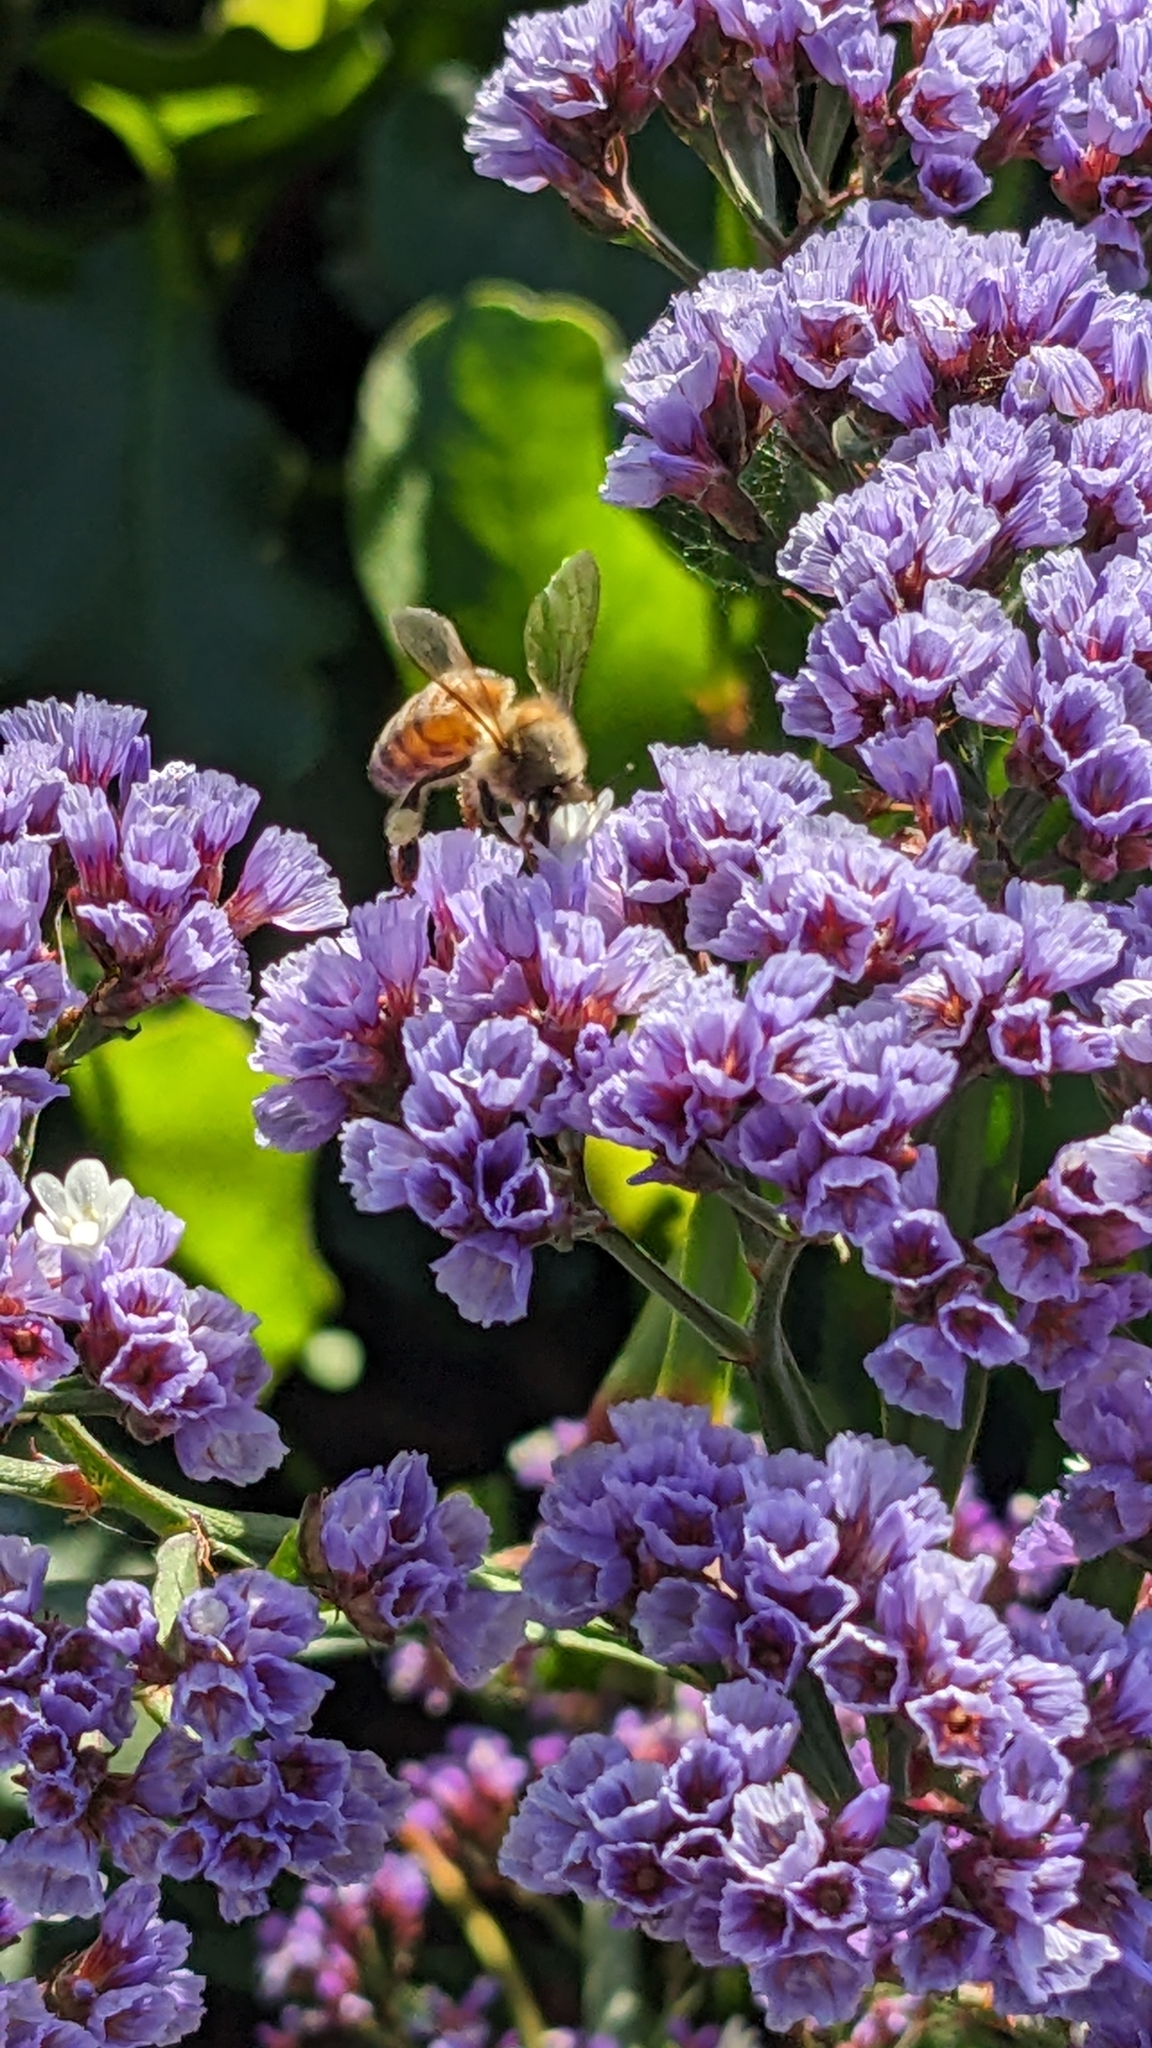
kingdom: Animalia
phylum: Arthropoda
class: Insecta
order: Hymenoptera
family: Apidae
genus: Apis
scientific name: Apis mellifera
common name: Honey bee
